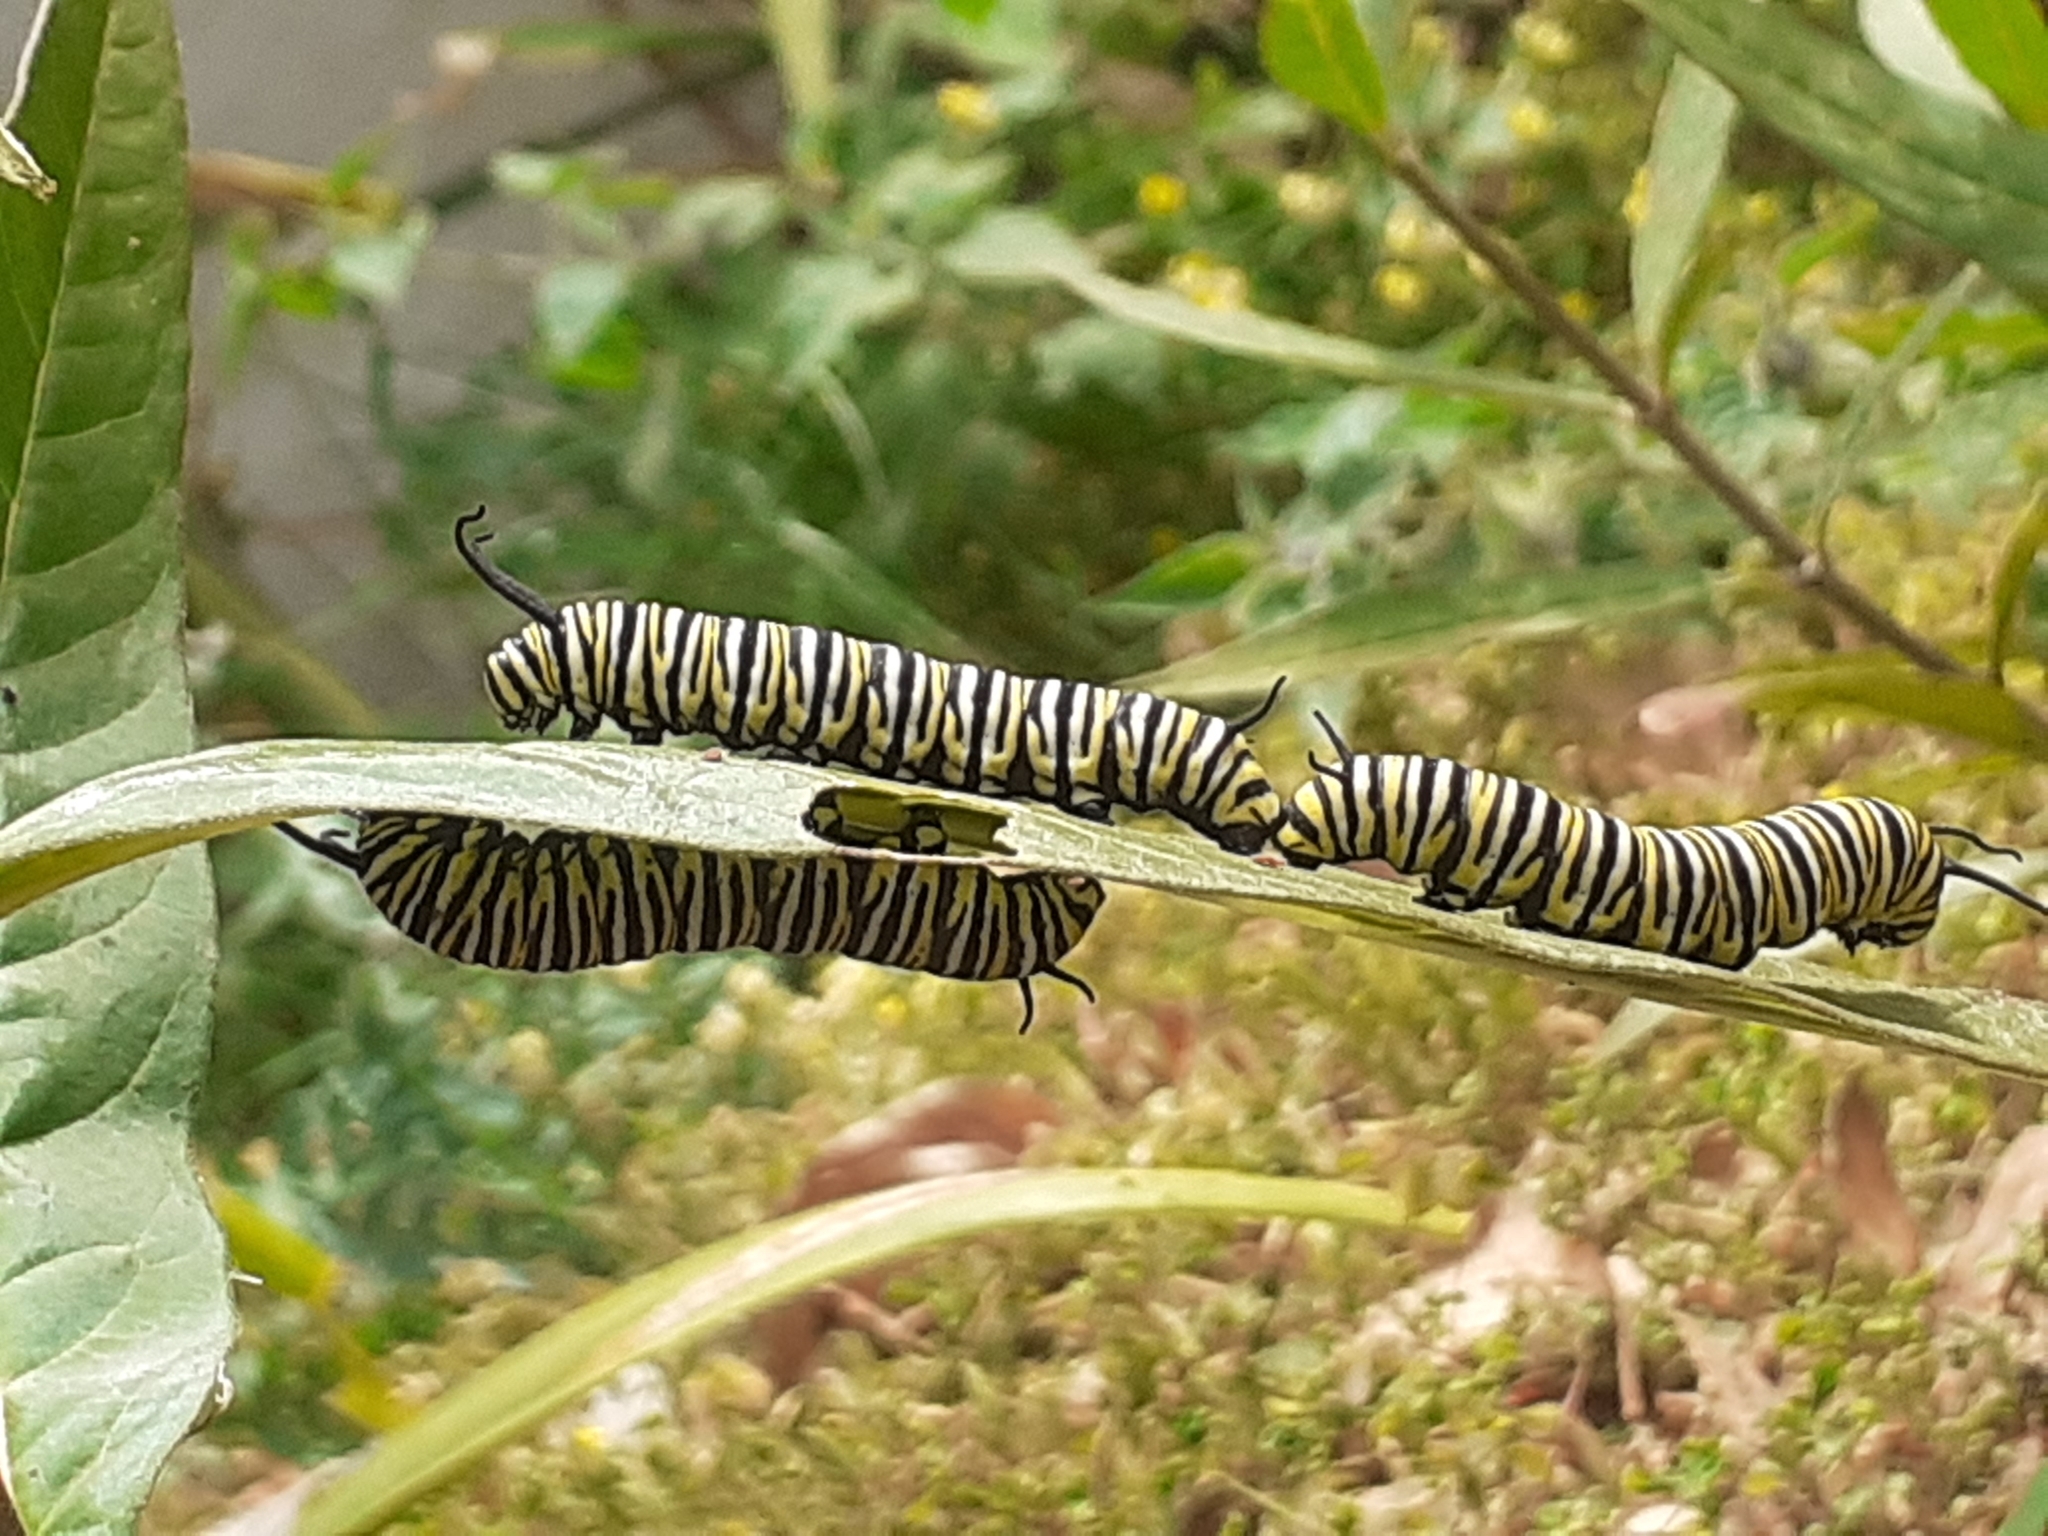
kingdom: Animalia
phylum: Arthropoda
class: Insecta
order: Lepidoptera
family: Nymphalidae
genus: Danaus
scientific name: Danaus plexippus
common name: Monarch
